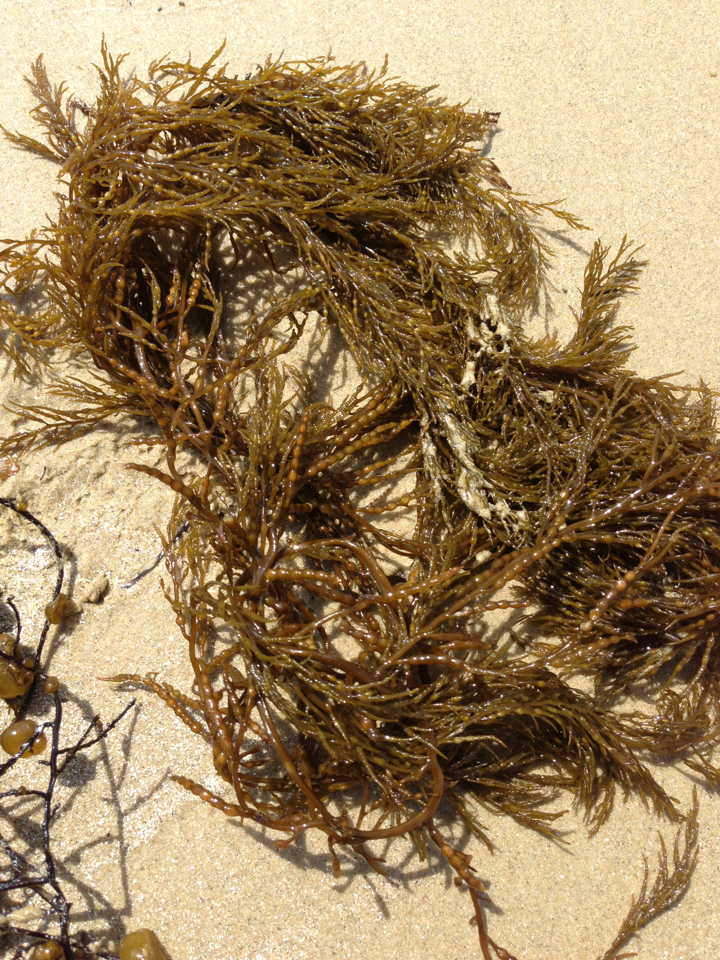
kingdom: Chromista
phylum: Ochrophyta
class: Phaeophyceae
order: Fucales
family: Sargassaceae
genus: Stephanocystis
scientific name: Stephanocystis
